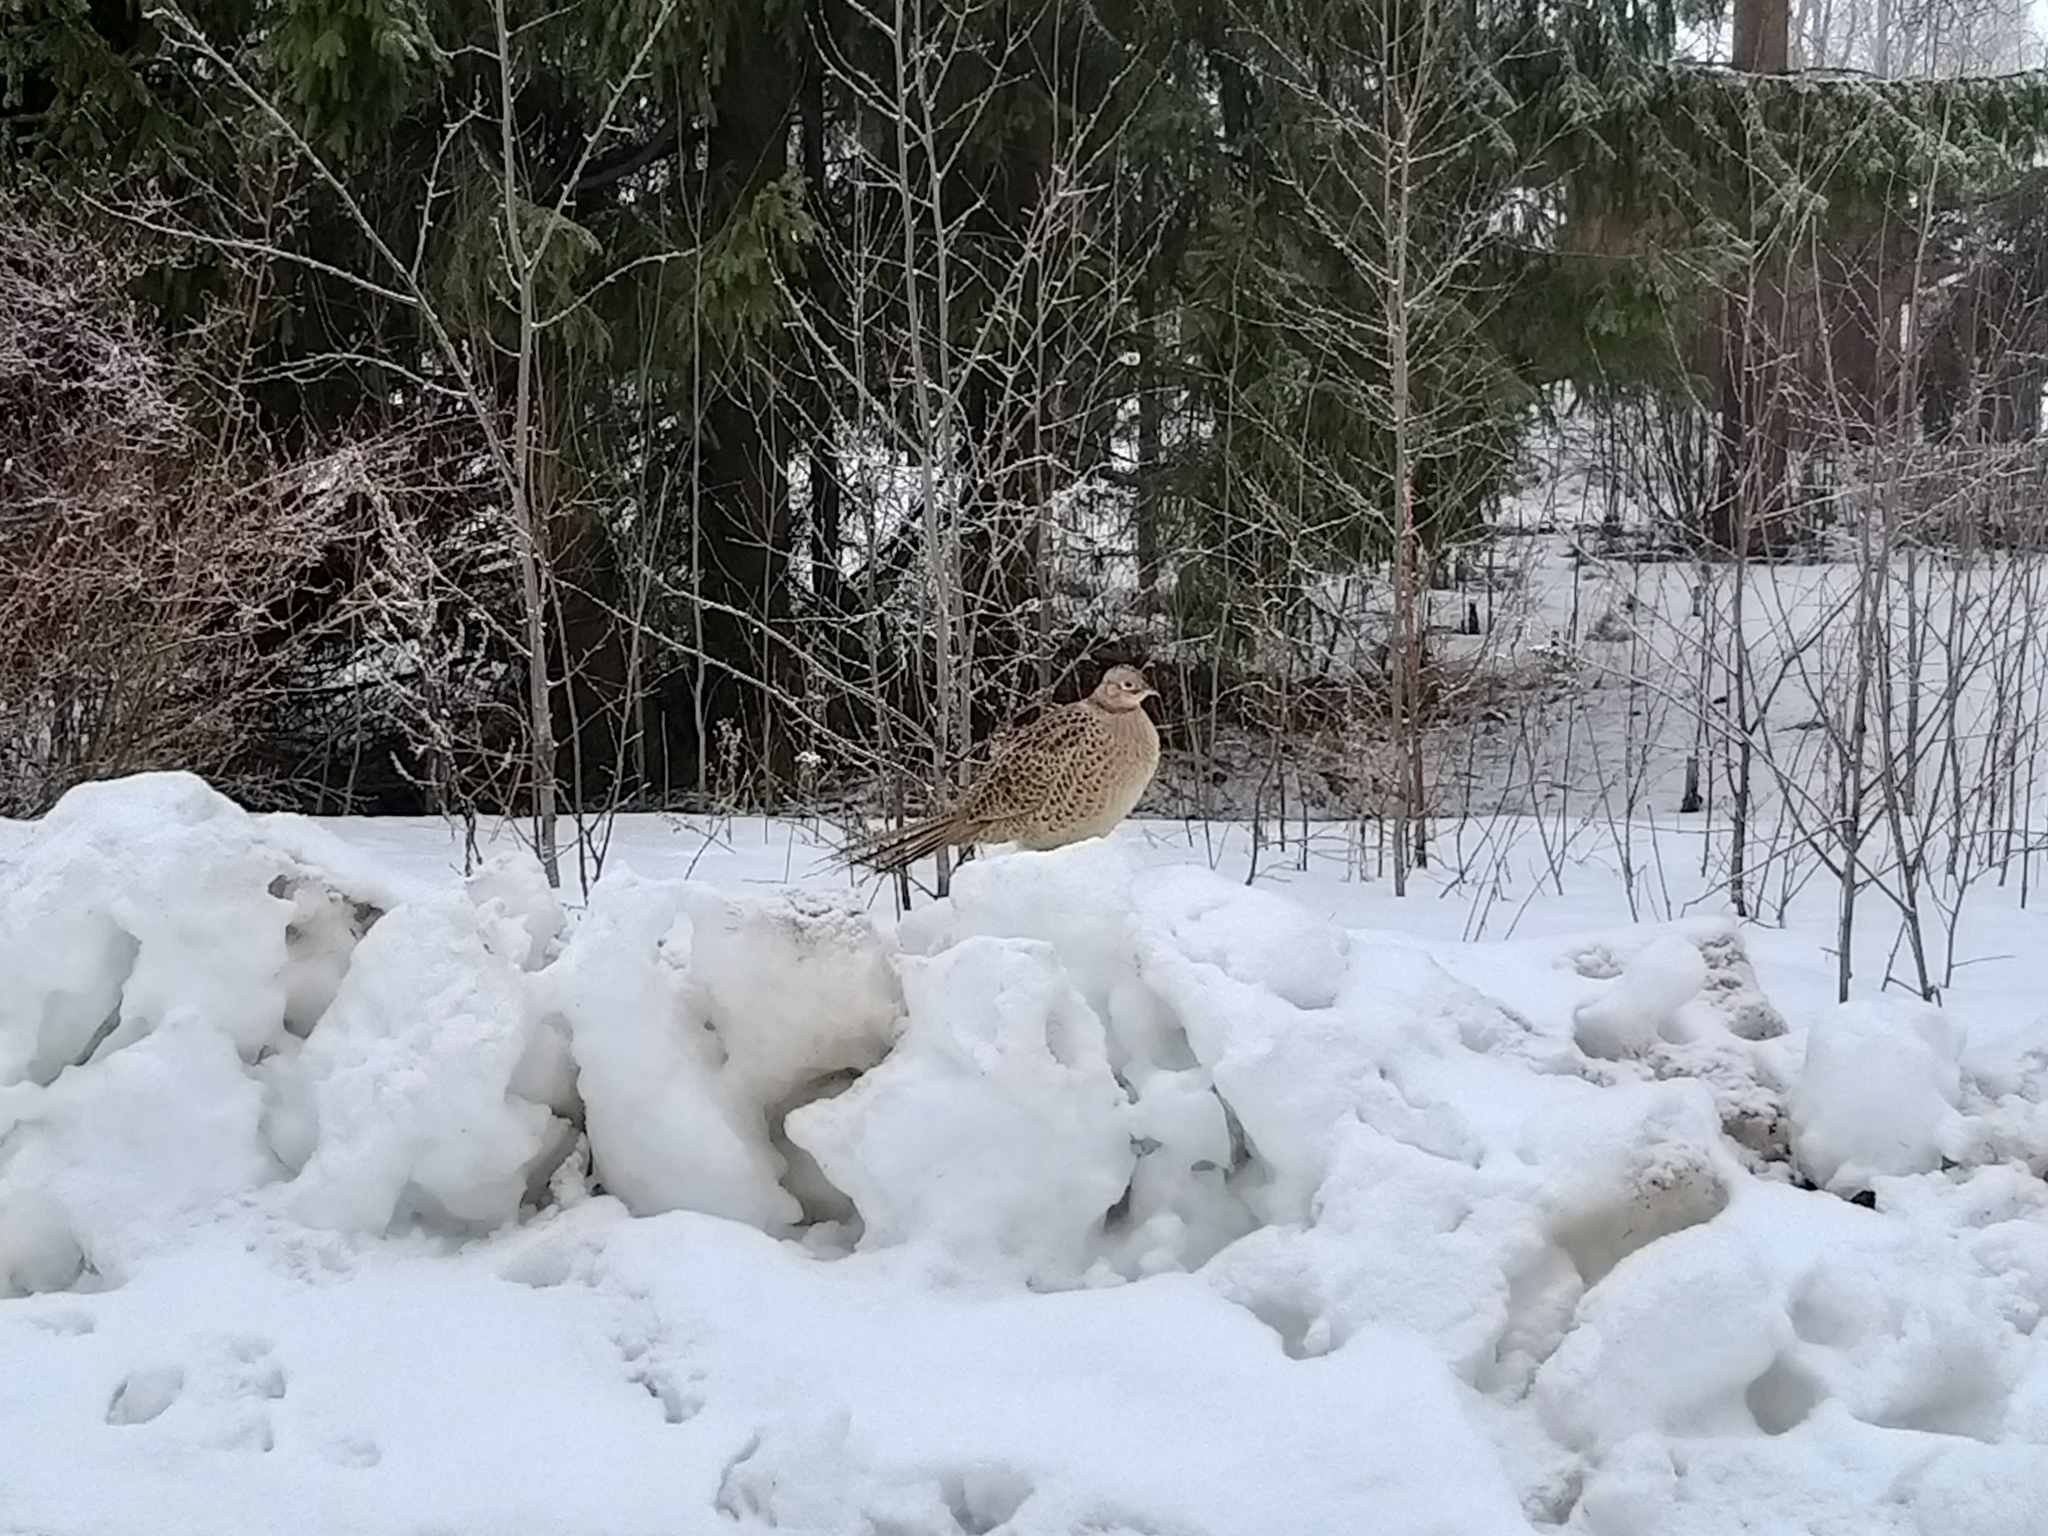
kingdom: Animalia
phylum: Chordata
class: Aves
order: Galliformes
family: Phasianidae
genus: Phasianus
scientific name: Phasianus colchicus
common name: Common pheasant
